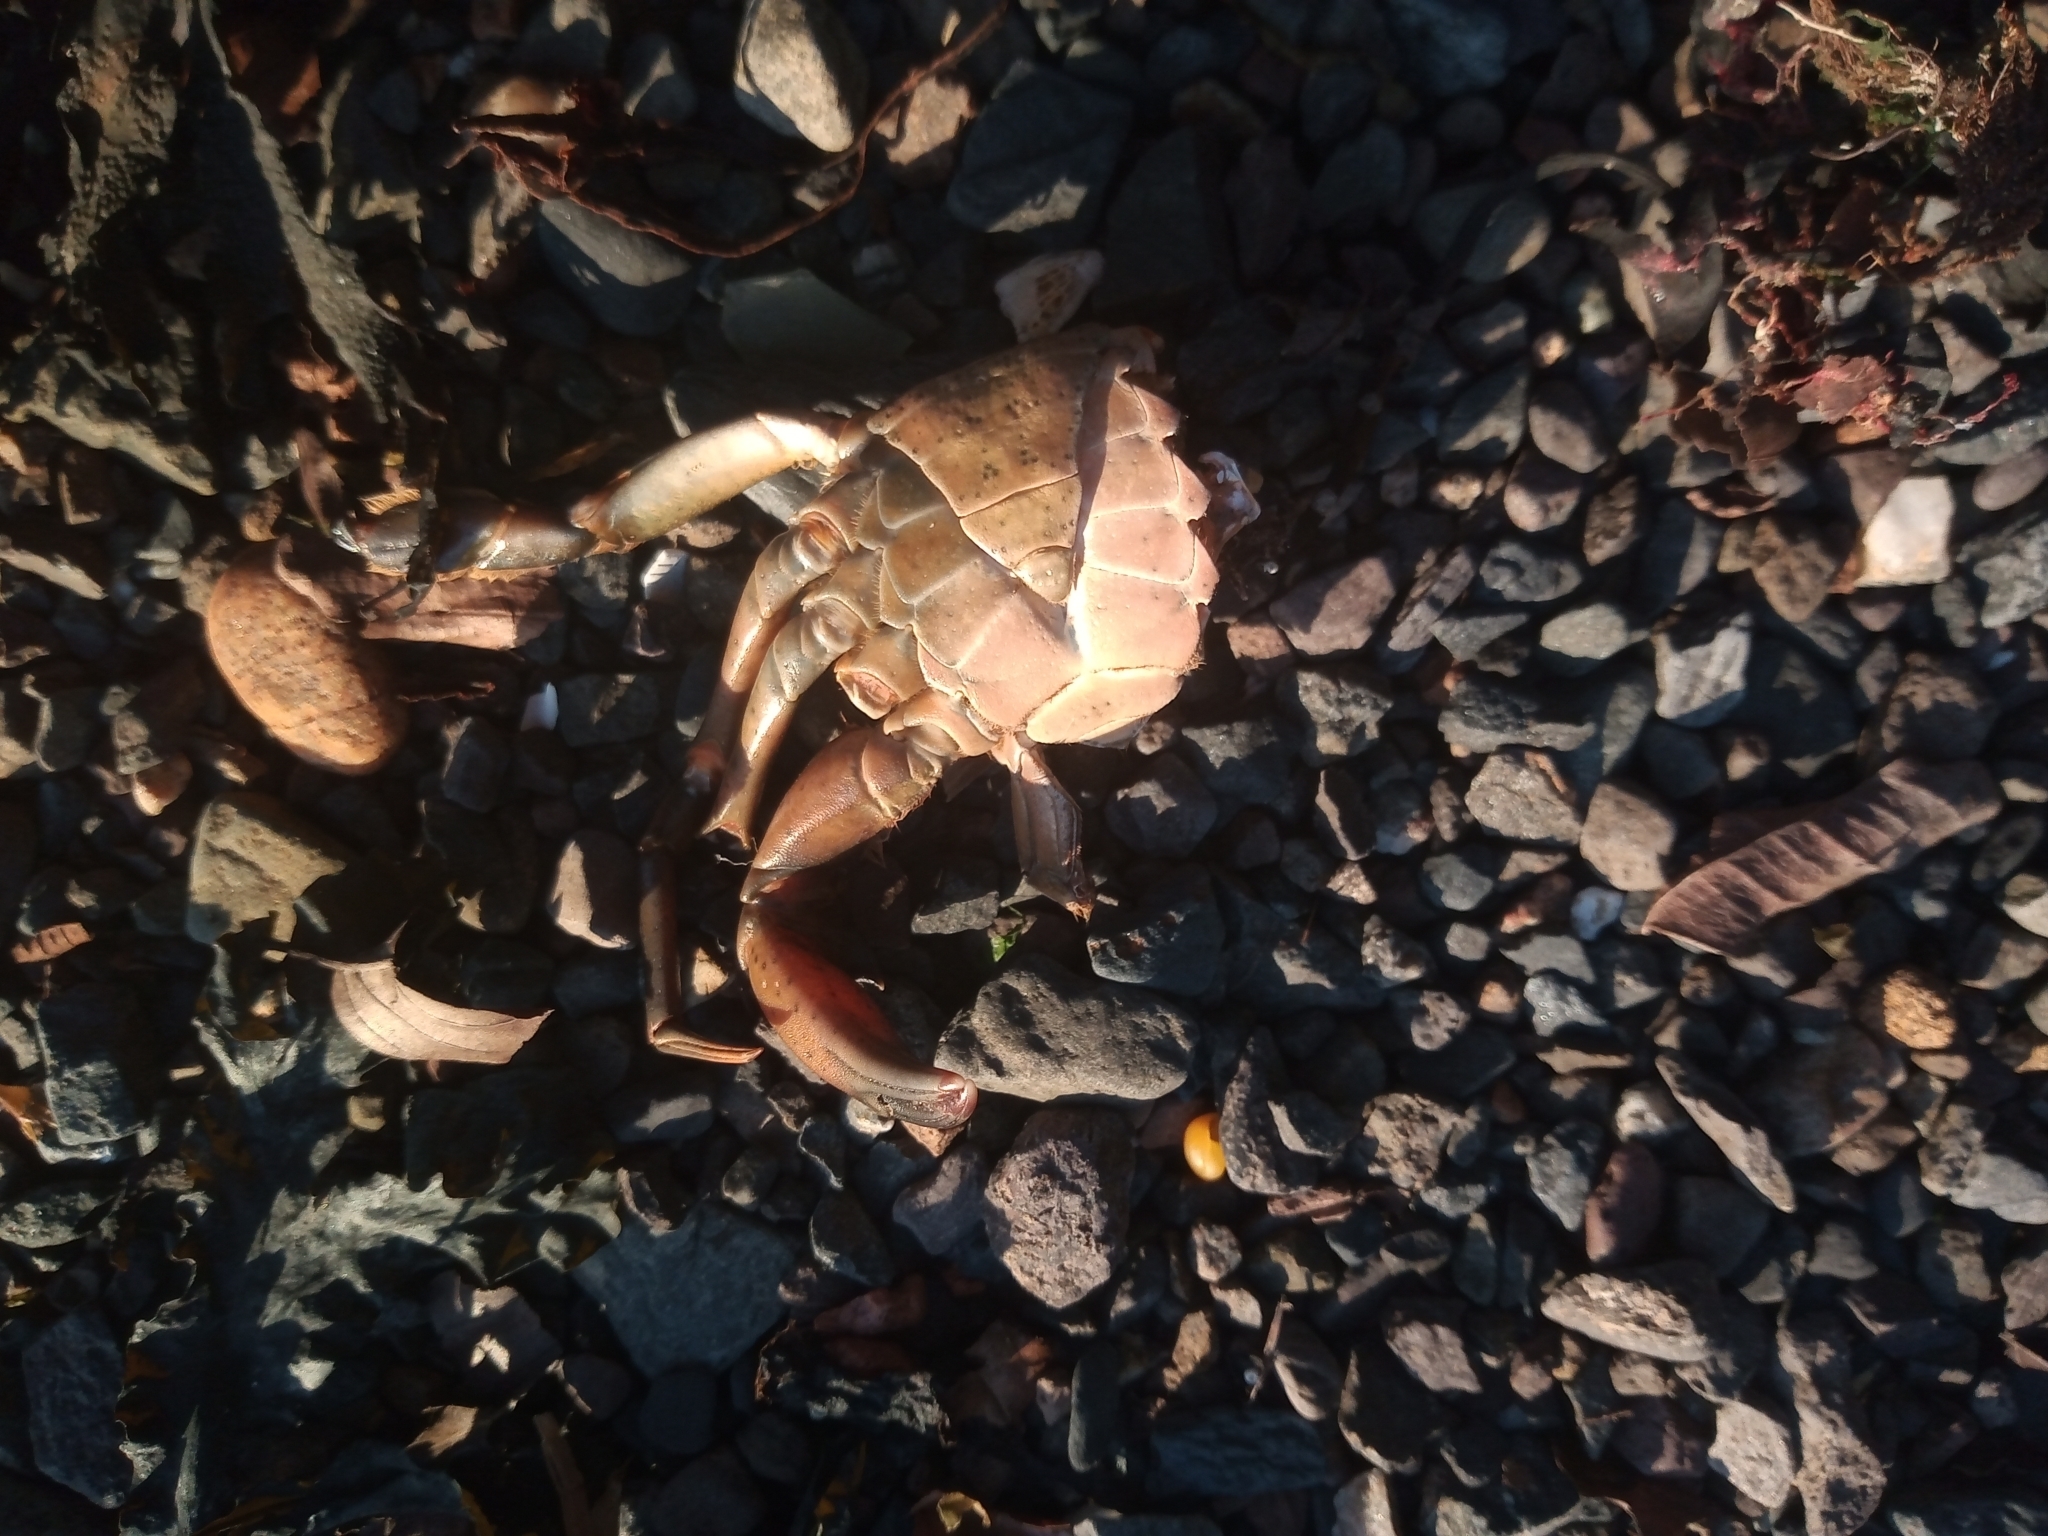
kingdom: Animalia
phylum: Arthropoda
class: Malacostraca
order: Decapoda
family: Carcinidae
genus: Carcinus
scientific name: Carcinus maenas
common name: European green crab
